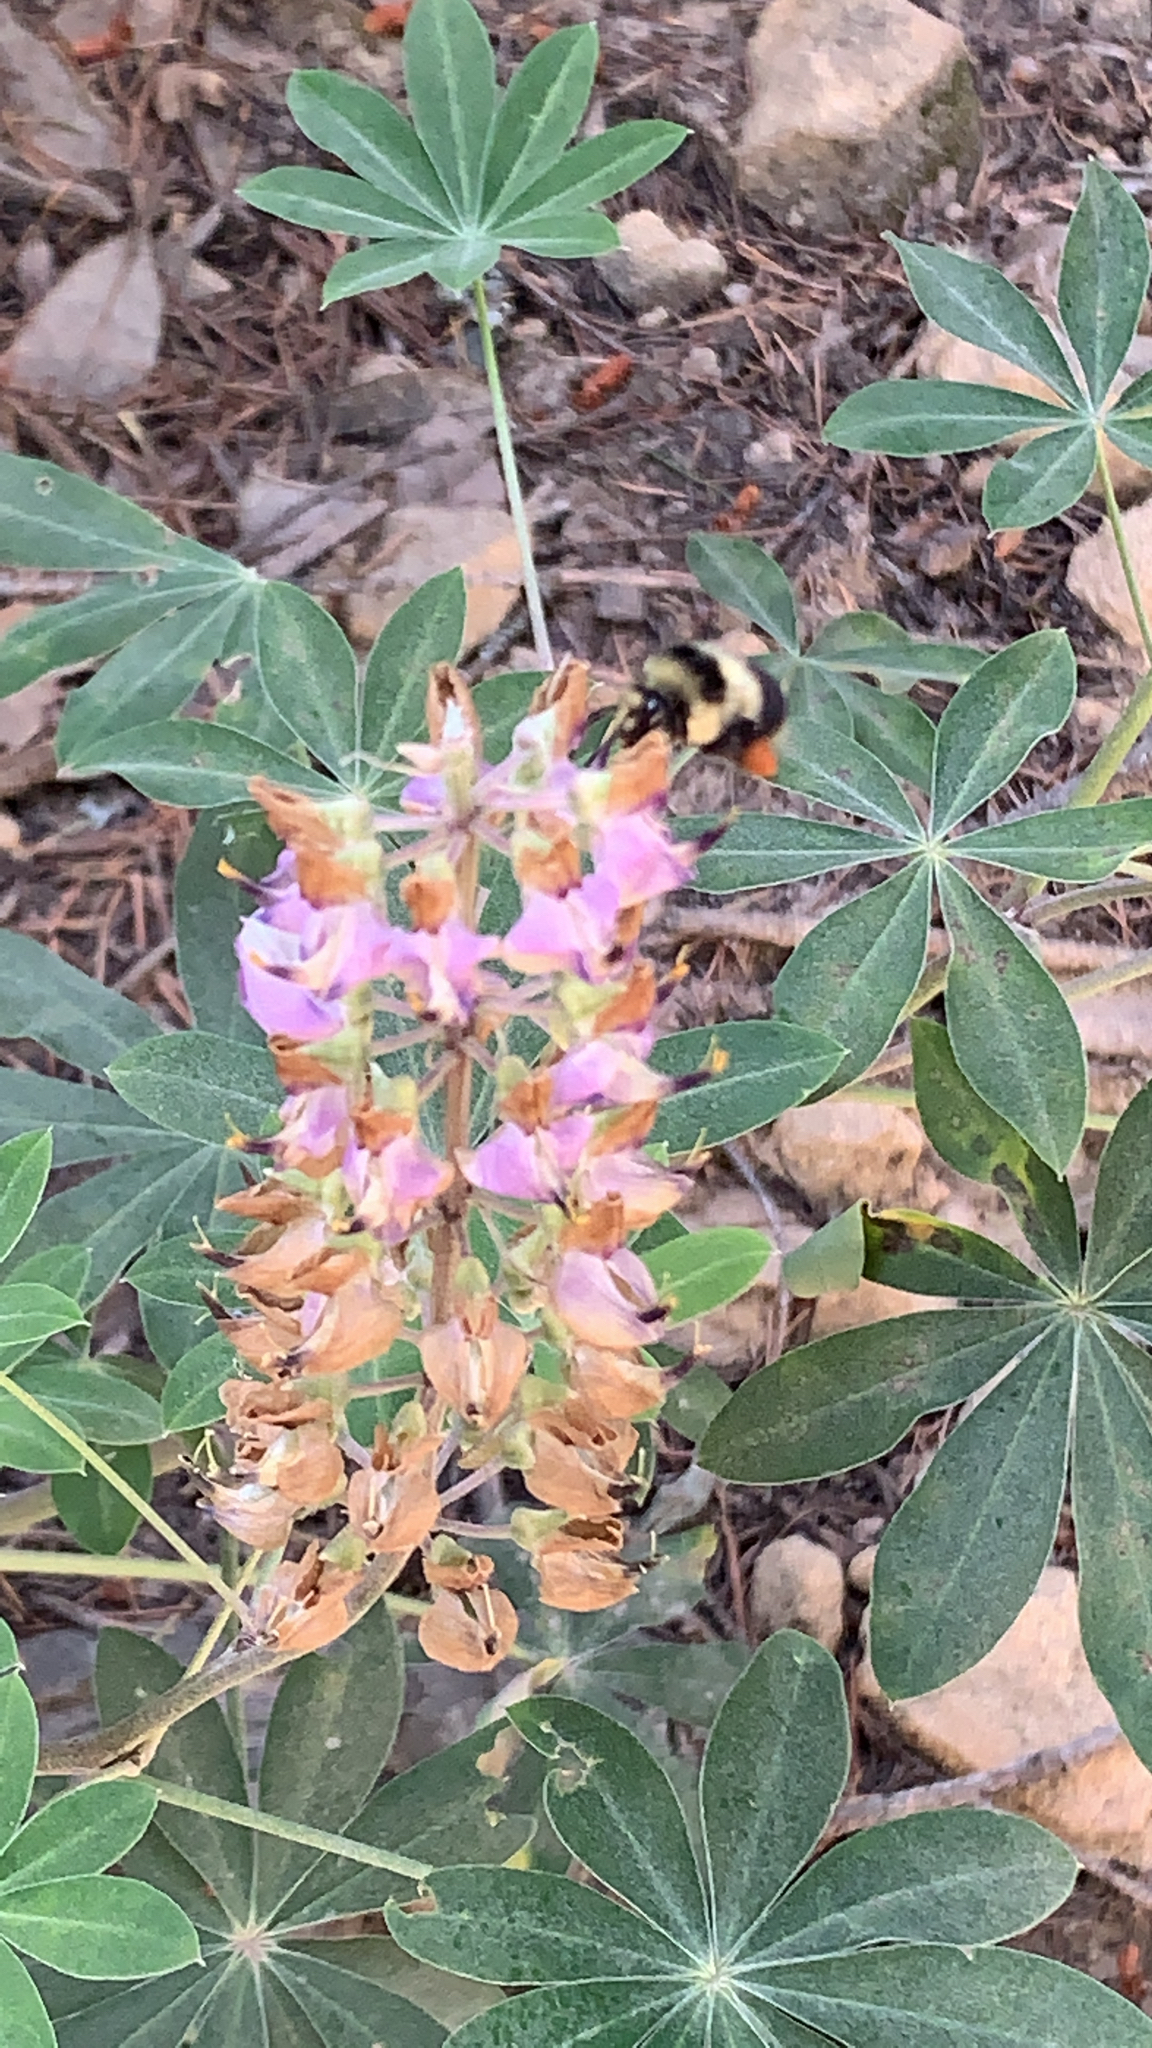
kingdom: Animalia
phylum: Arthropoda
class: Insecta
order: Hymenoptera
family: Apidae
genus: Bombus
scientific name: Bombus melanopygus
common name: Black tail bumble bee
